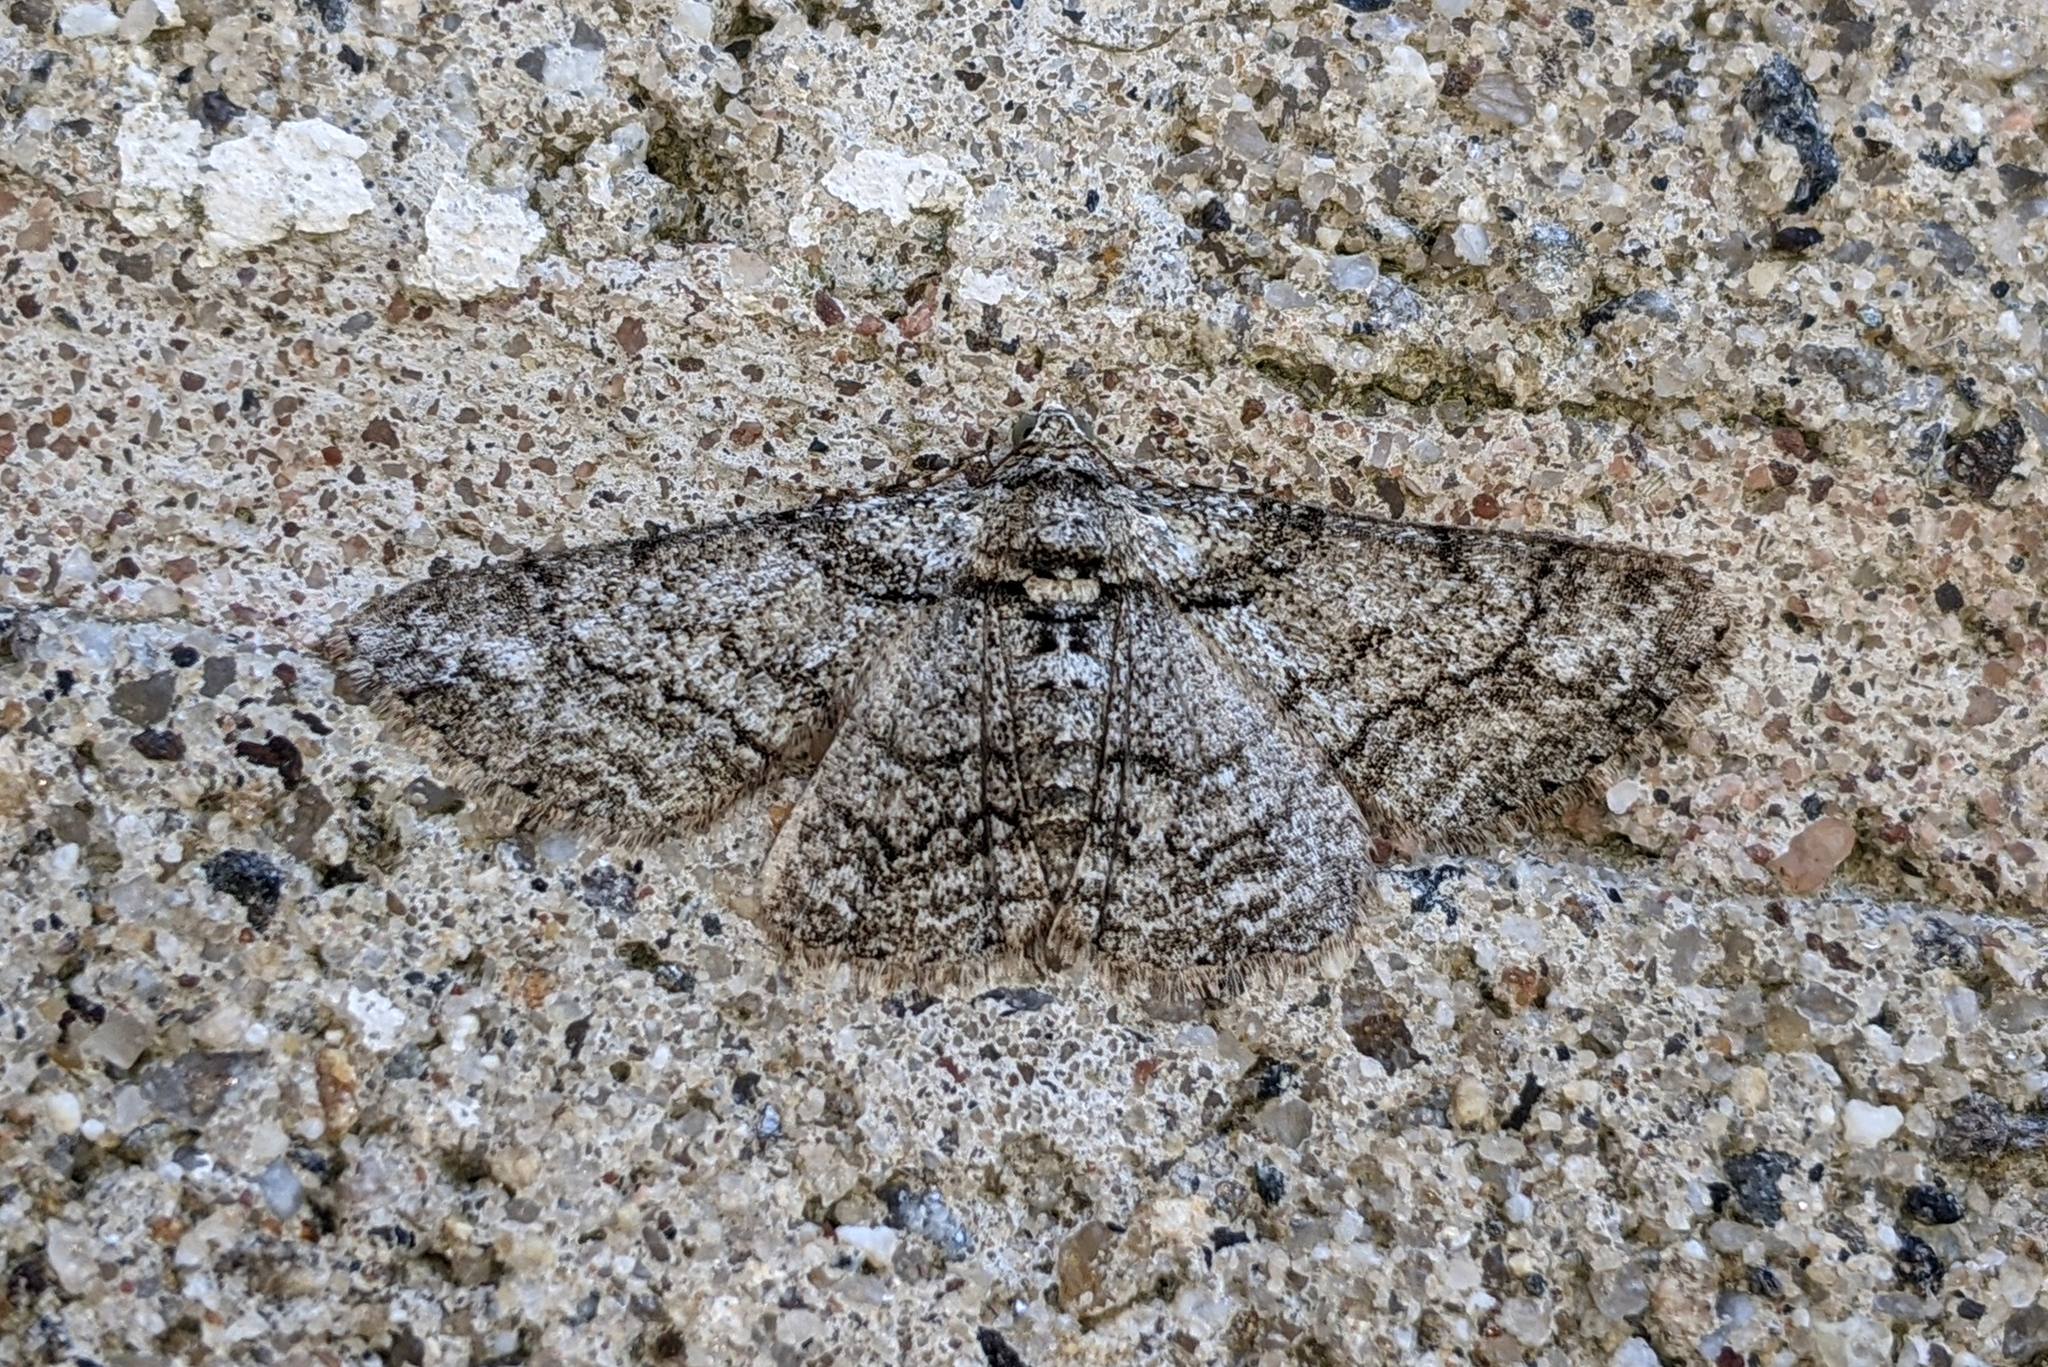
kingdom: Animalia
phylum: Arthropoda
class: Insecta
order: Lepidoptera
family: Geometridae
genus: Cleora
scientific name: Cleora sublunaria
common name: Double-lined gray
